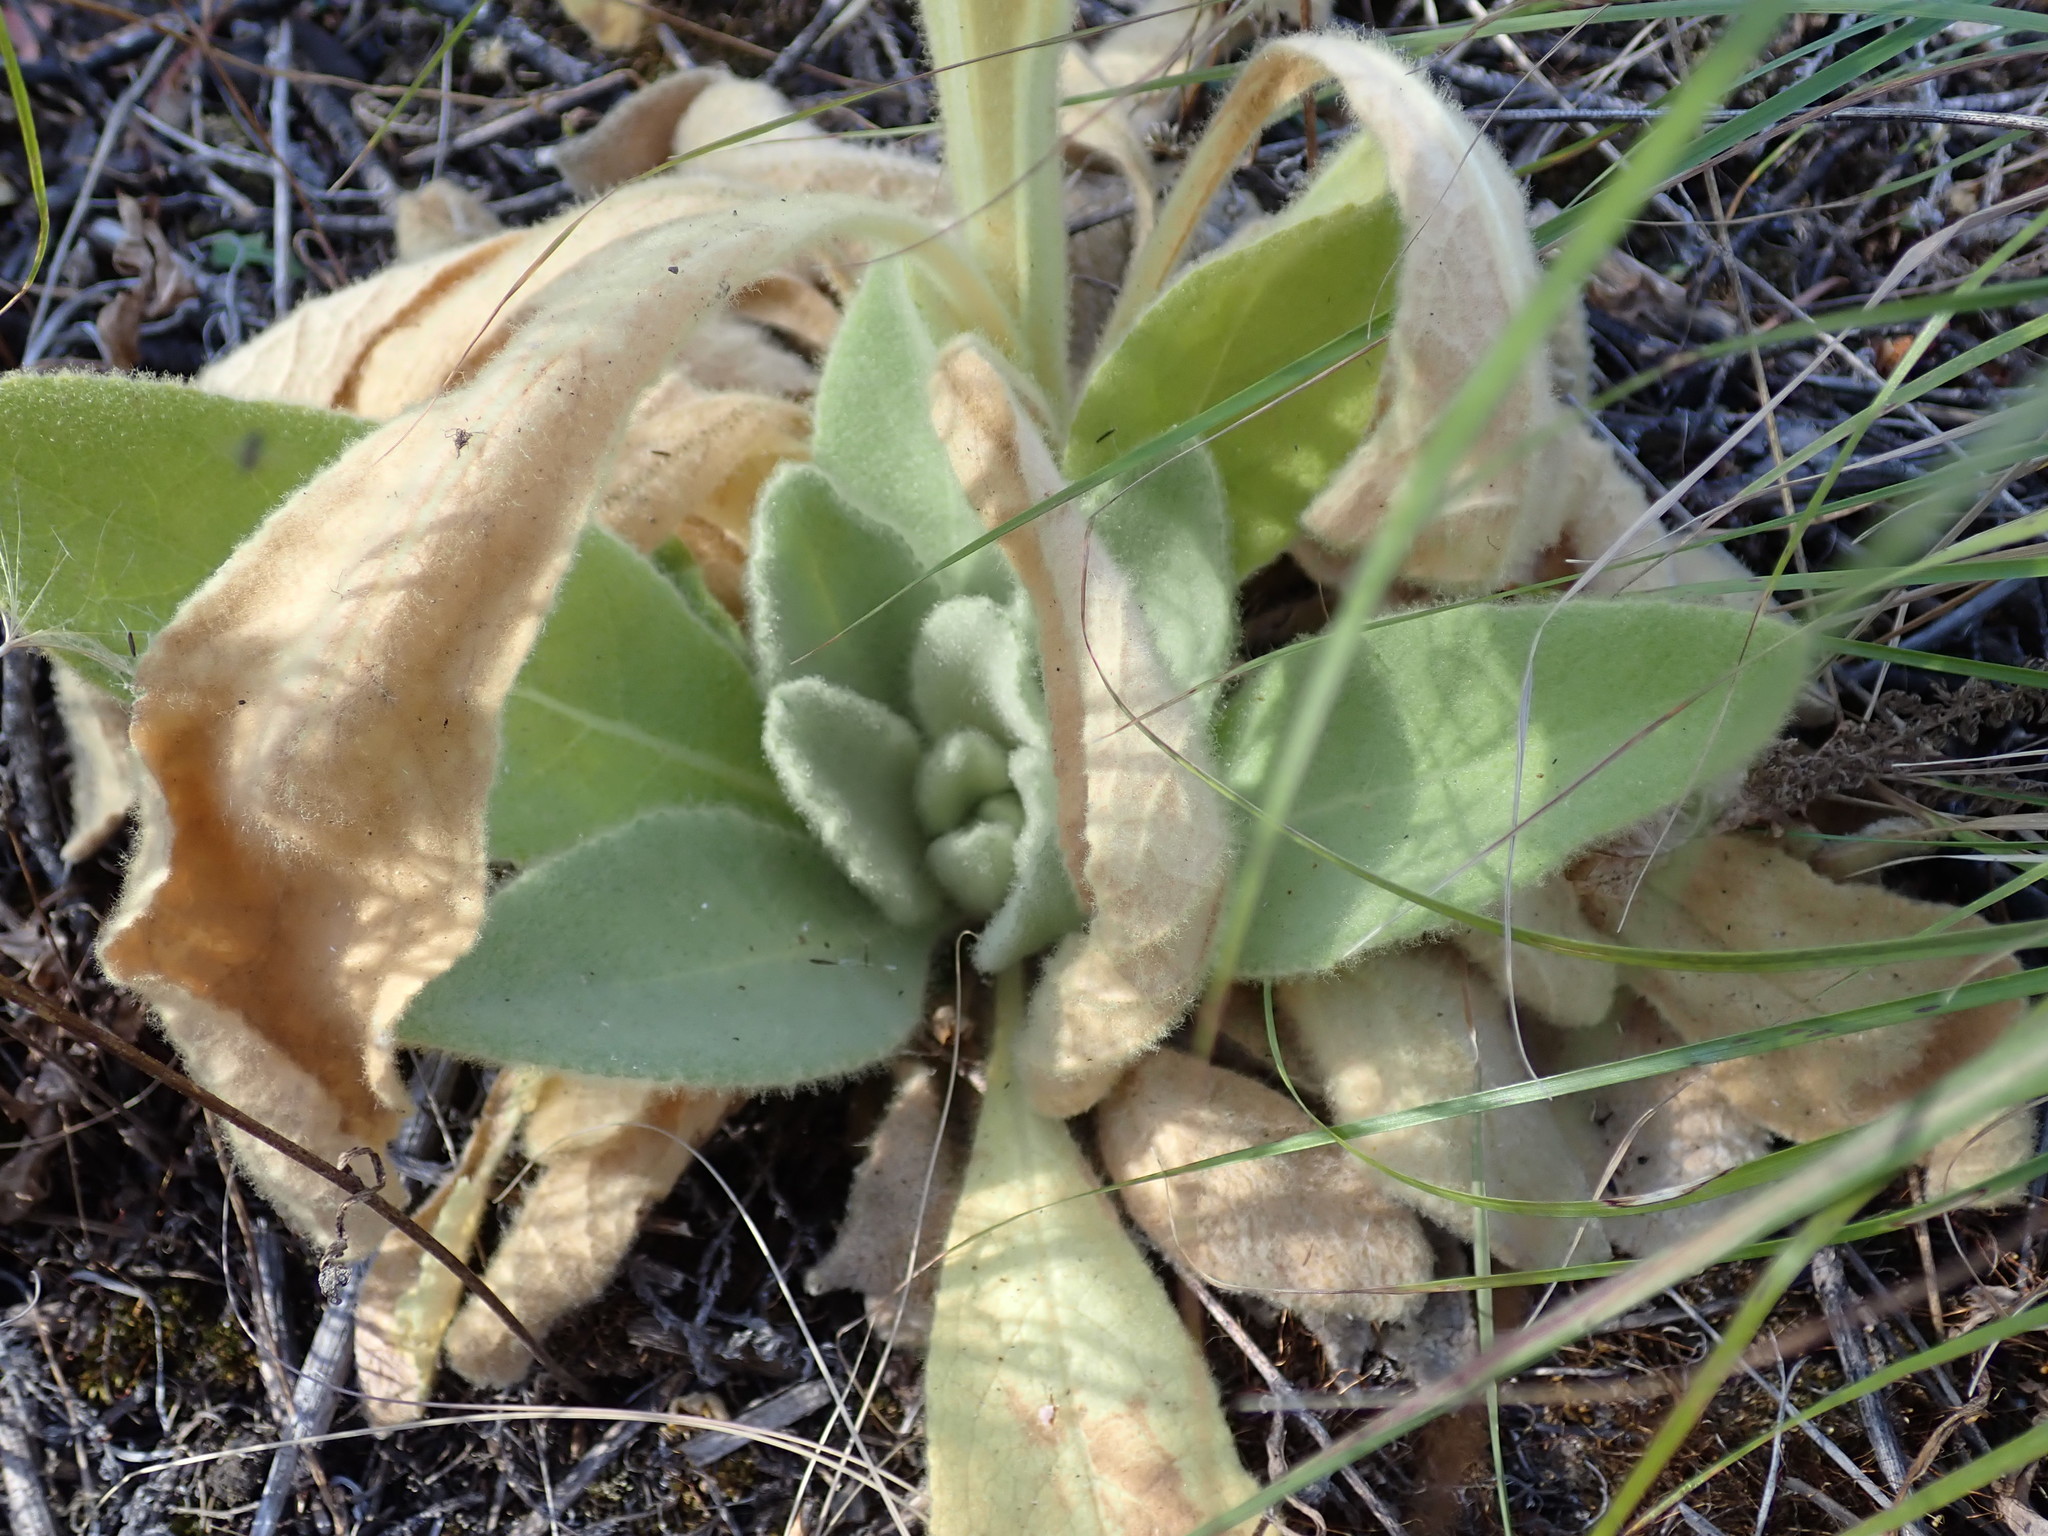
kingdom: Plantae
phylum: Tracheophyta
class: Magnoliopsida
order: Lamiales
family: Scrophulariaceae
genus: Verbascum
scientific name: Verbascum thapsus
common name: Common mullein
